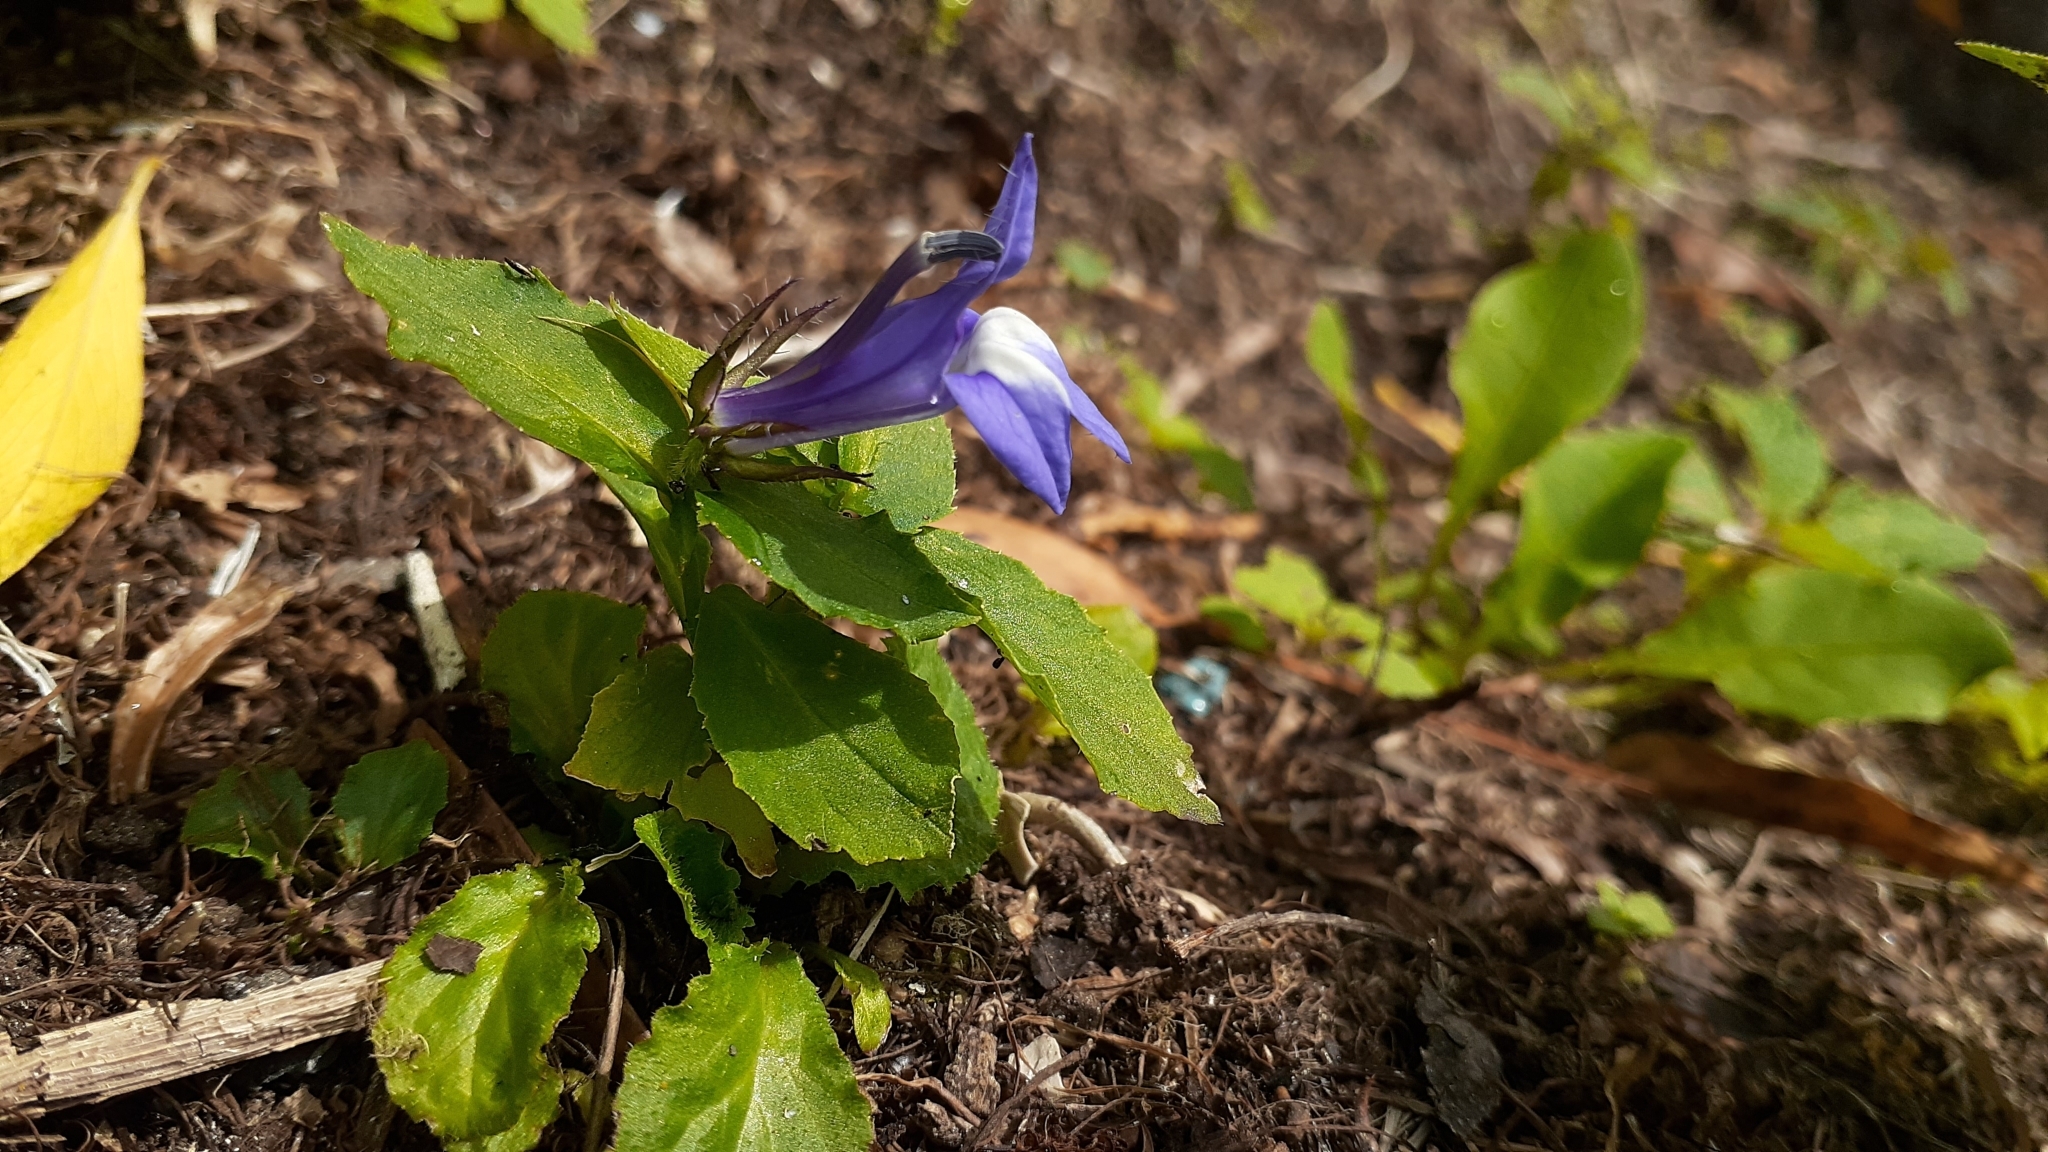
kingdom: Plantae
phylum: Tracheophyta
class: Magnoliopsida
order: Asterales
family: Campanulaceae
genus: Lobelia
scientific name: Lobelia siphilitica
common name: Great lobelia
